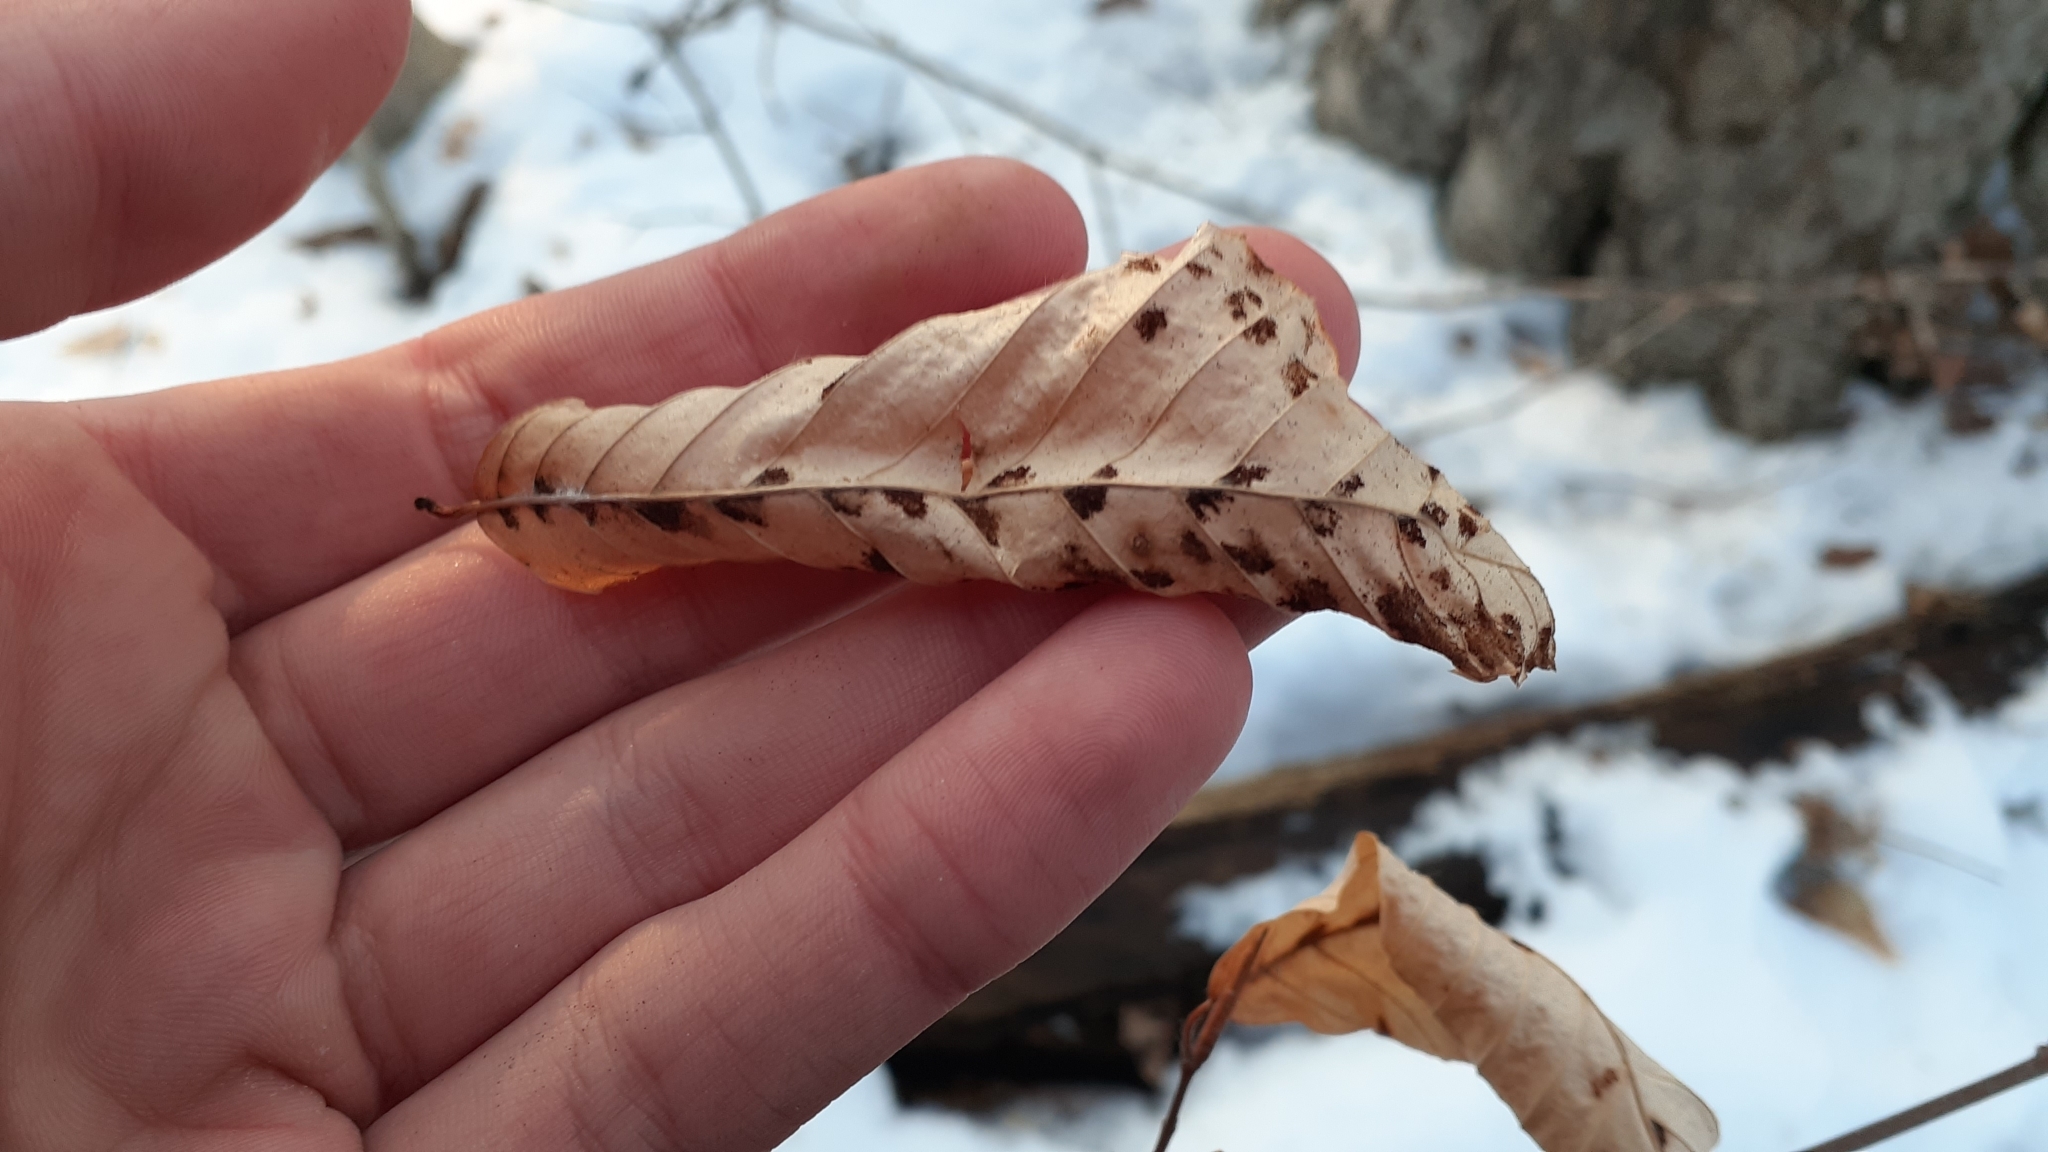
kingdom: Animalia
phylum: Arthropoda
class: Arachnida
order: Trombidiformes
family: Eriophyidae
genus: Acalitus
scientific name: Acalitus
